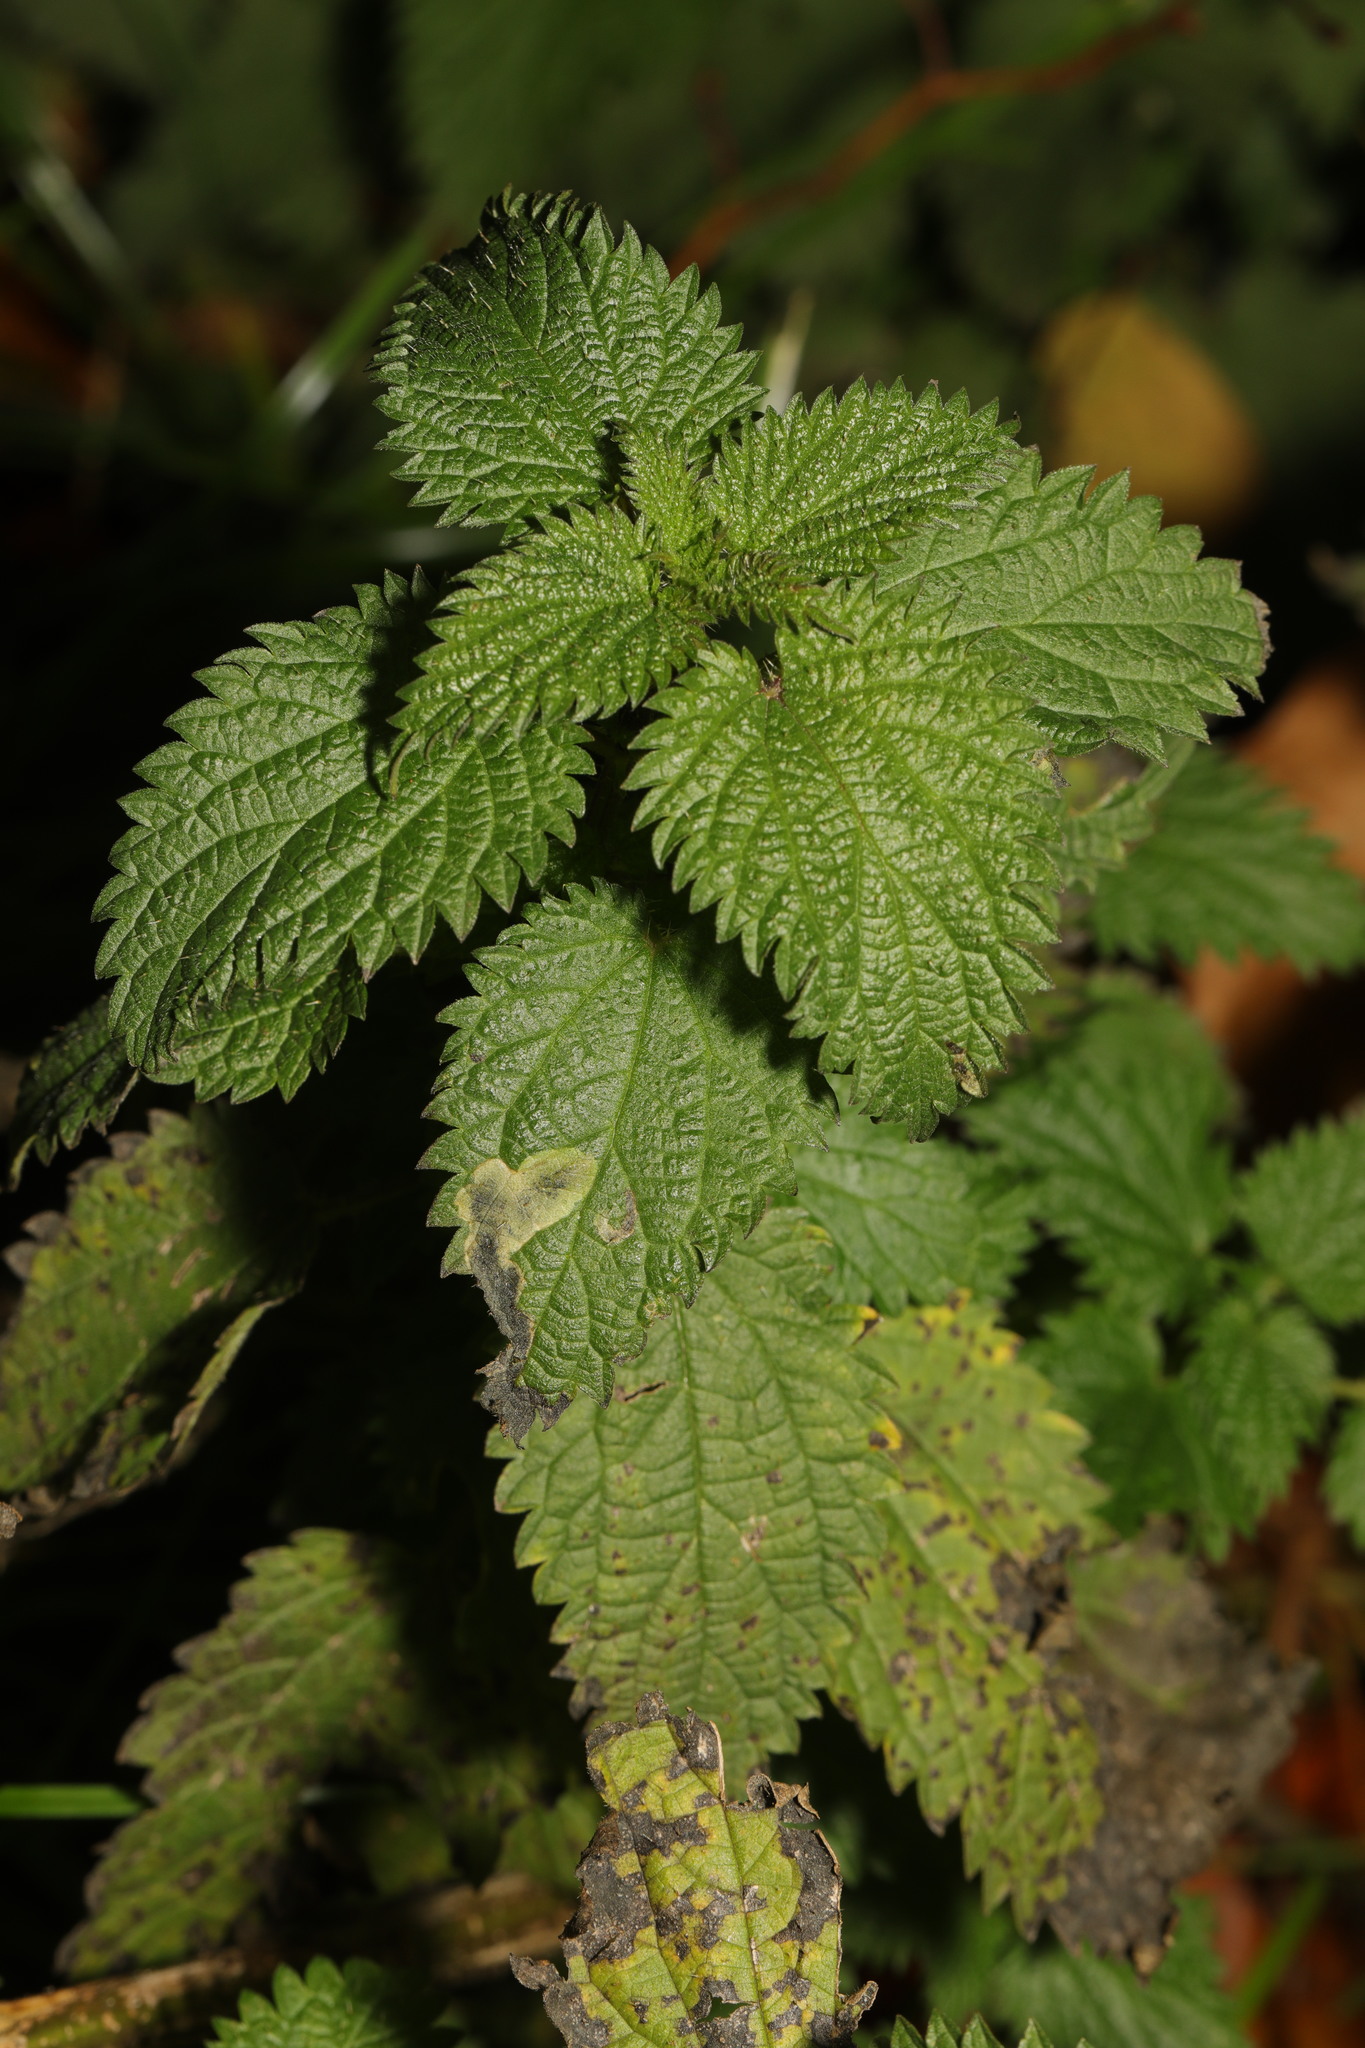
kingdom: Plantae
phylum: Tracheophyta
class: Magnoliopsida
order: Rosales
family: Urticaceae
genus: Urtica
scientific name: Urtica dioica
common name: Common nettle
